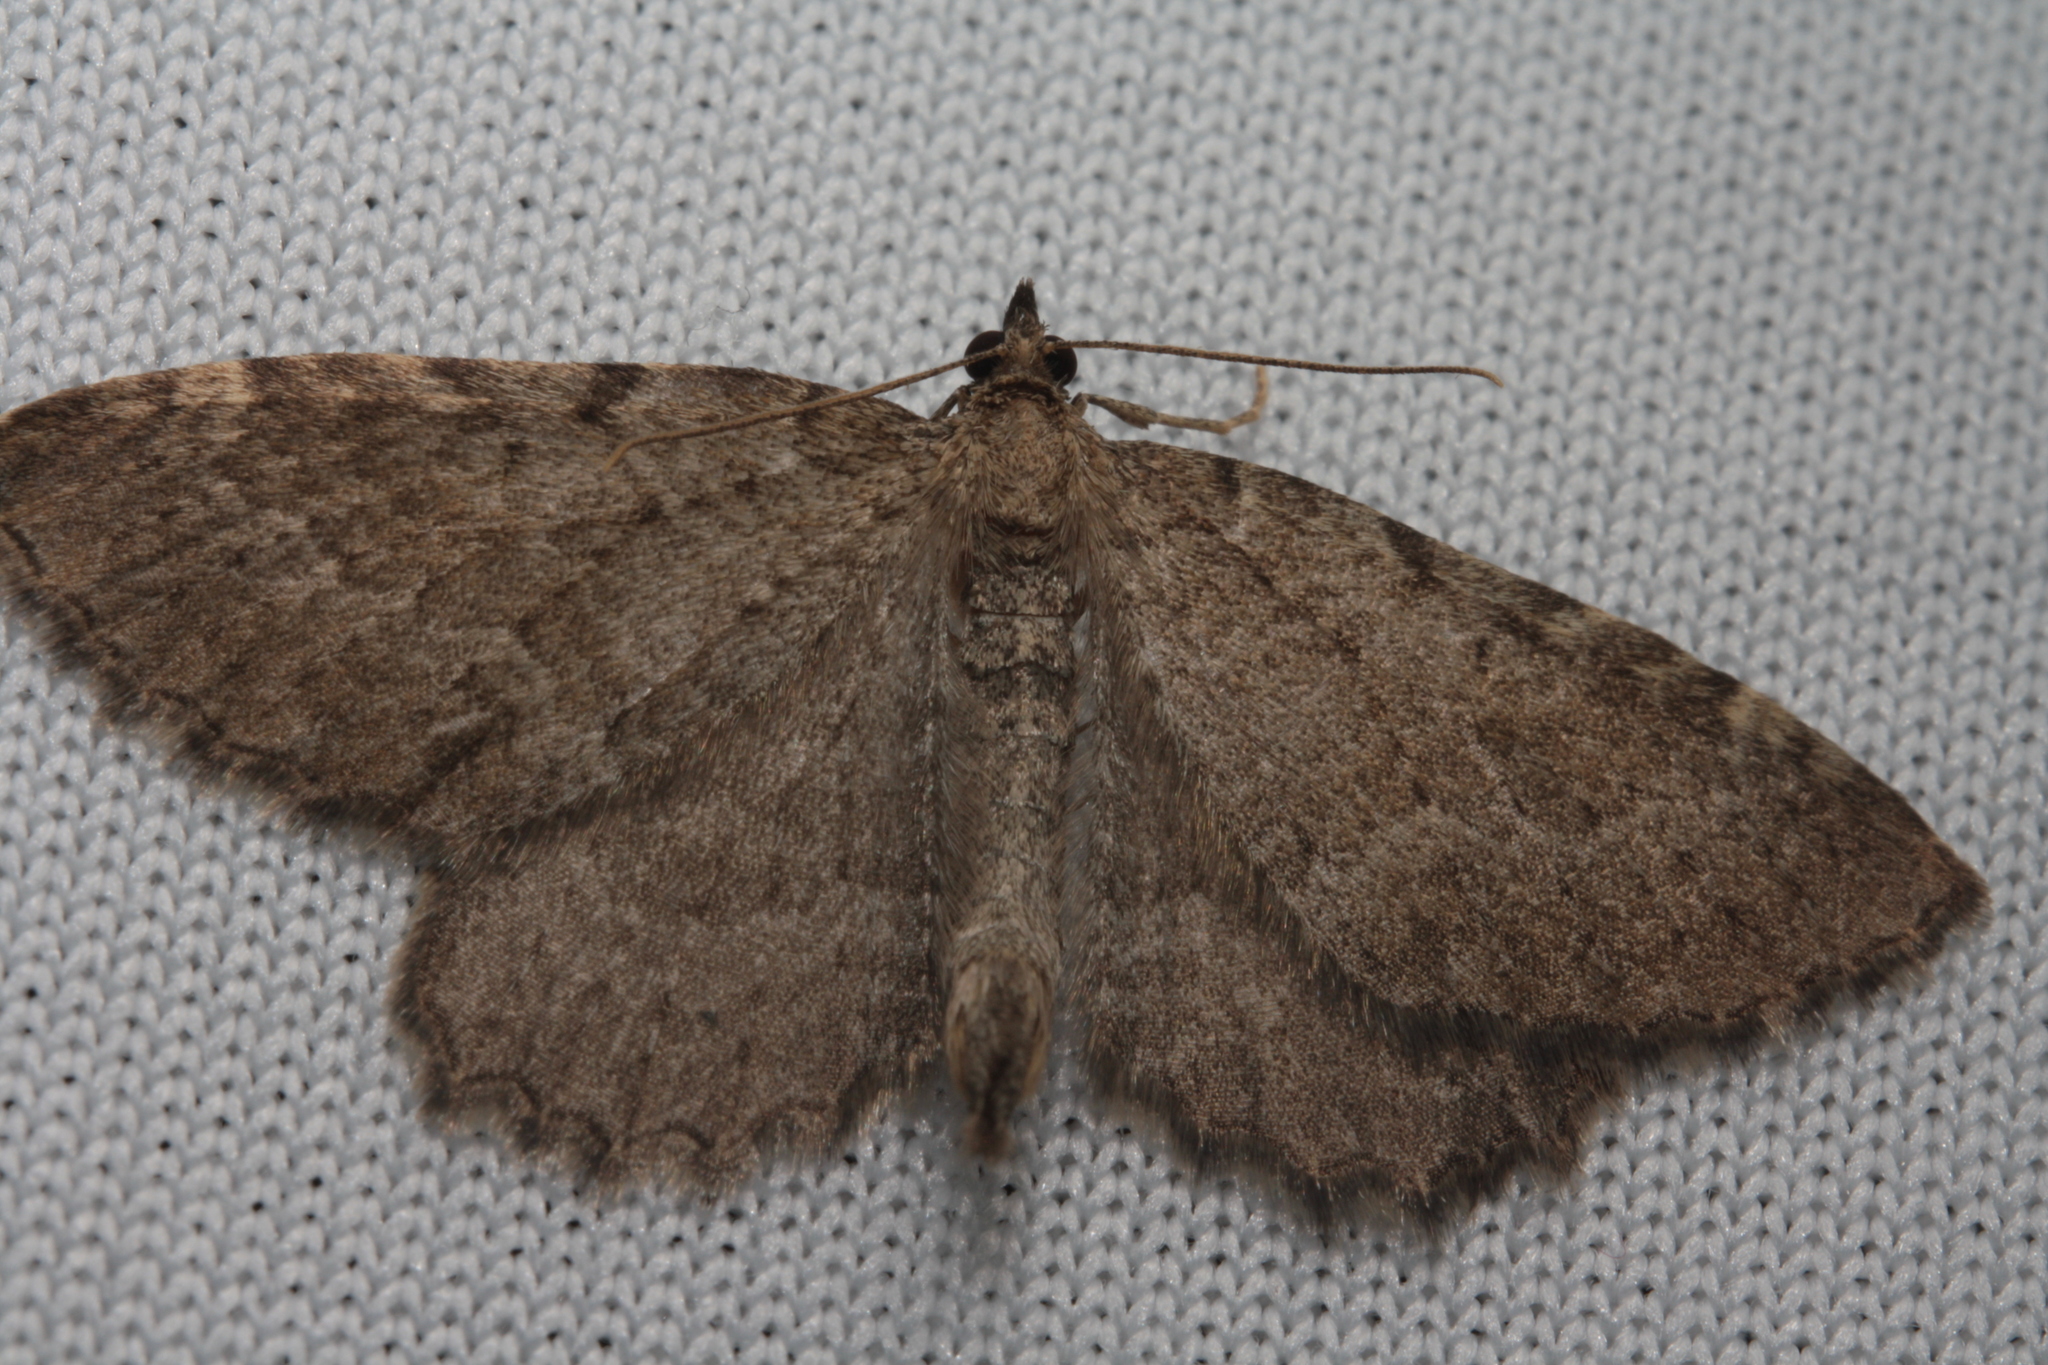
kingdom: Animalia
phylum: Arthropoda
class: Insecta
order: Lepidoptera
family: Geometridae
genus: Philereme
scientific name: Philereme vetulata
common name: Brown scallop
